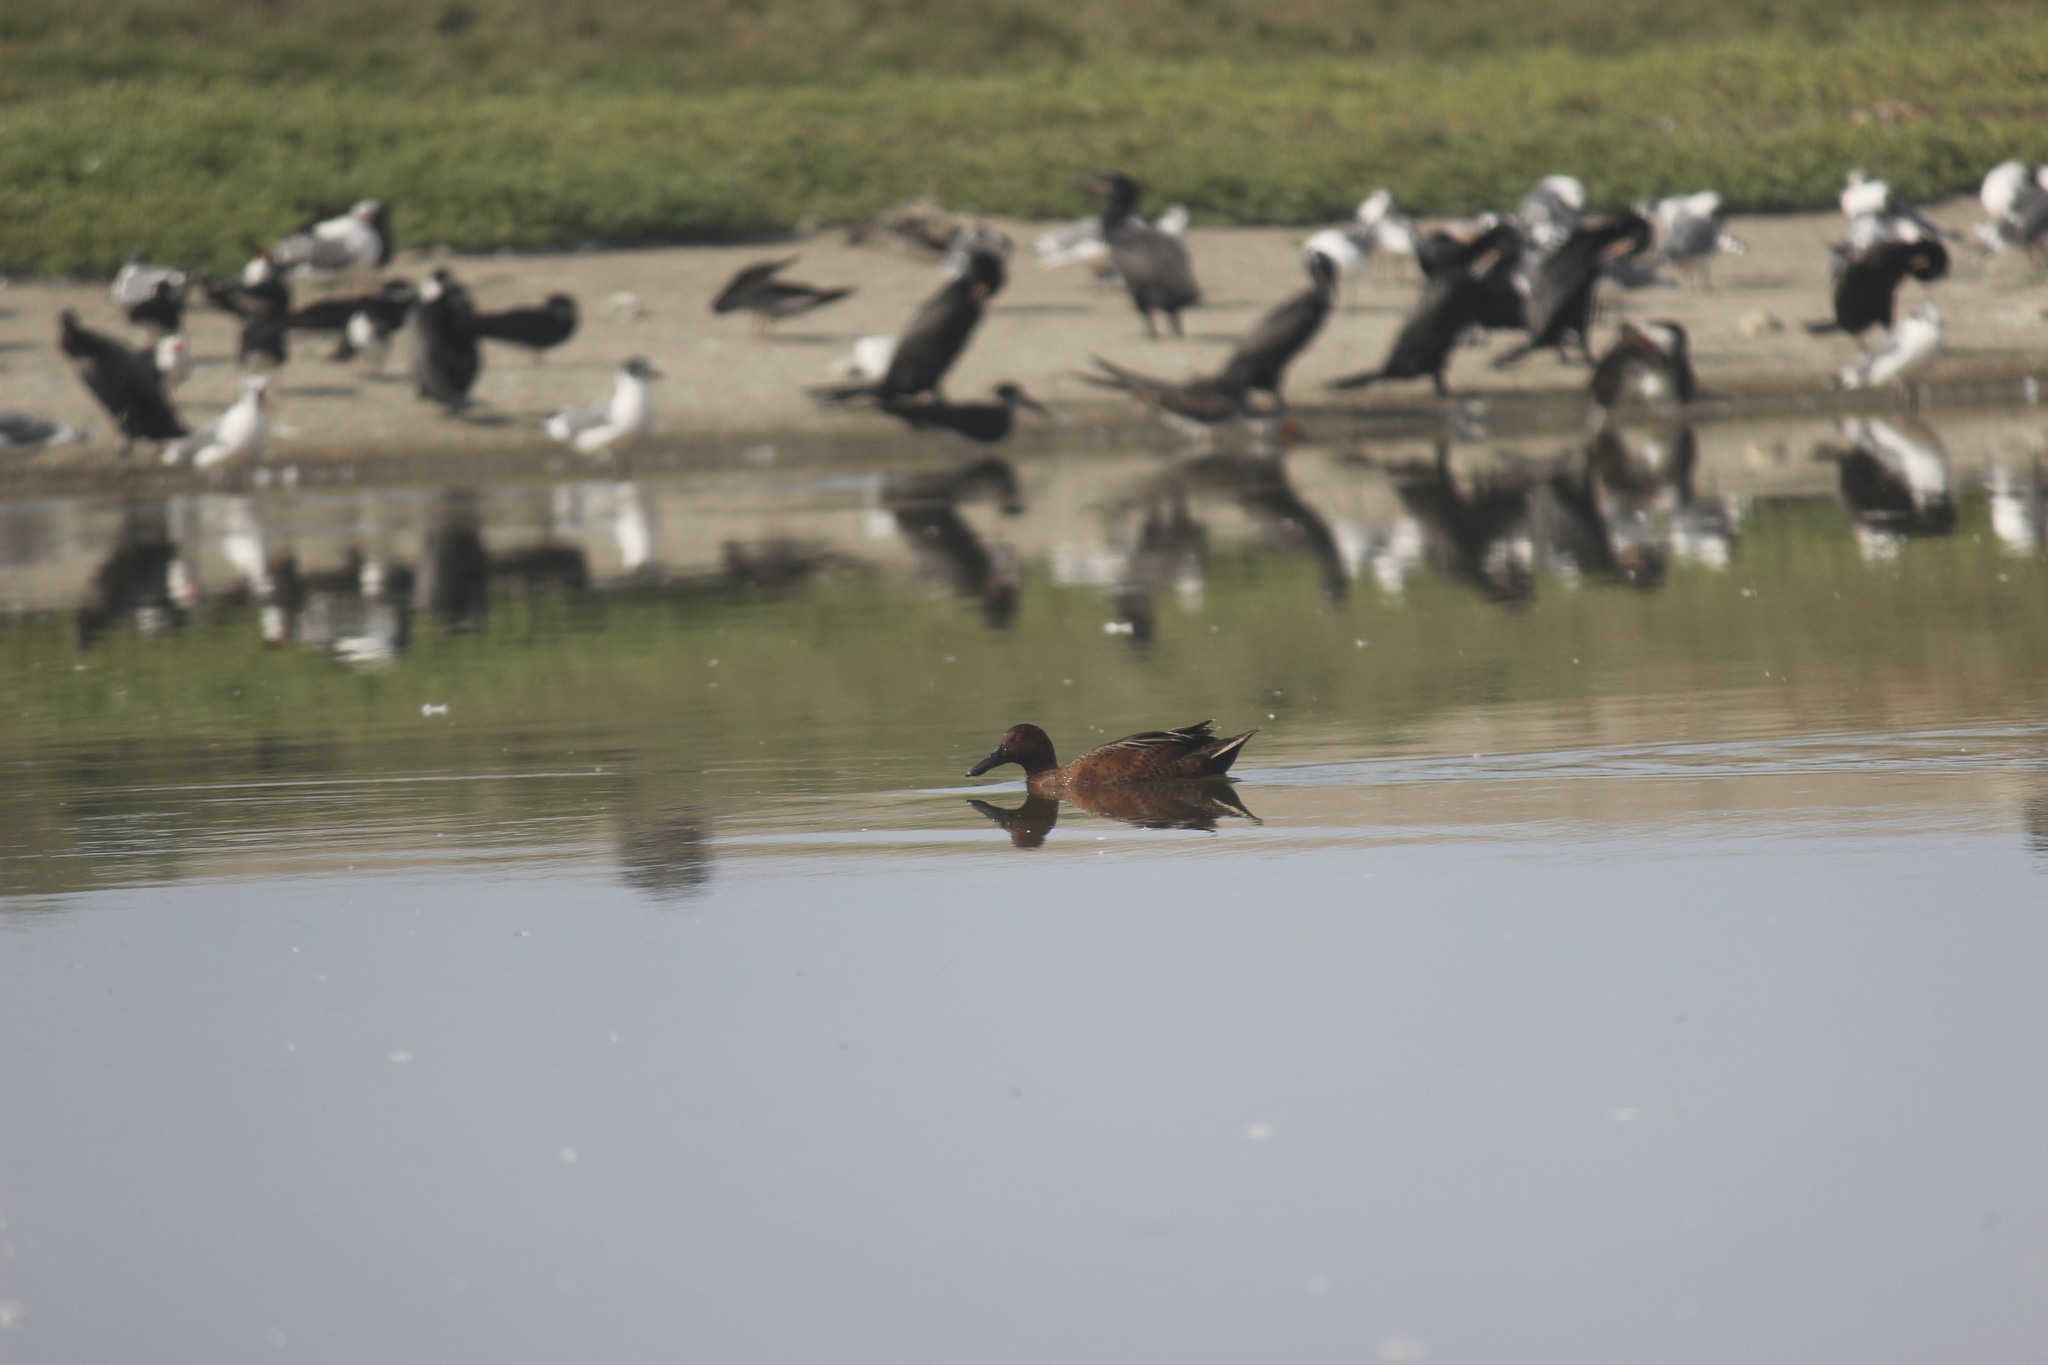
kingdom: Animalia
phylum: Chordata
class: Aves
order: Anseriformes
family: Anatidae
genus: Spatula
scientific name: Spatula cyanoptera
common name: Cinnamon teal
